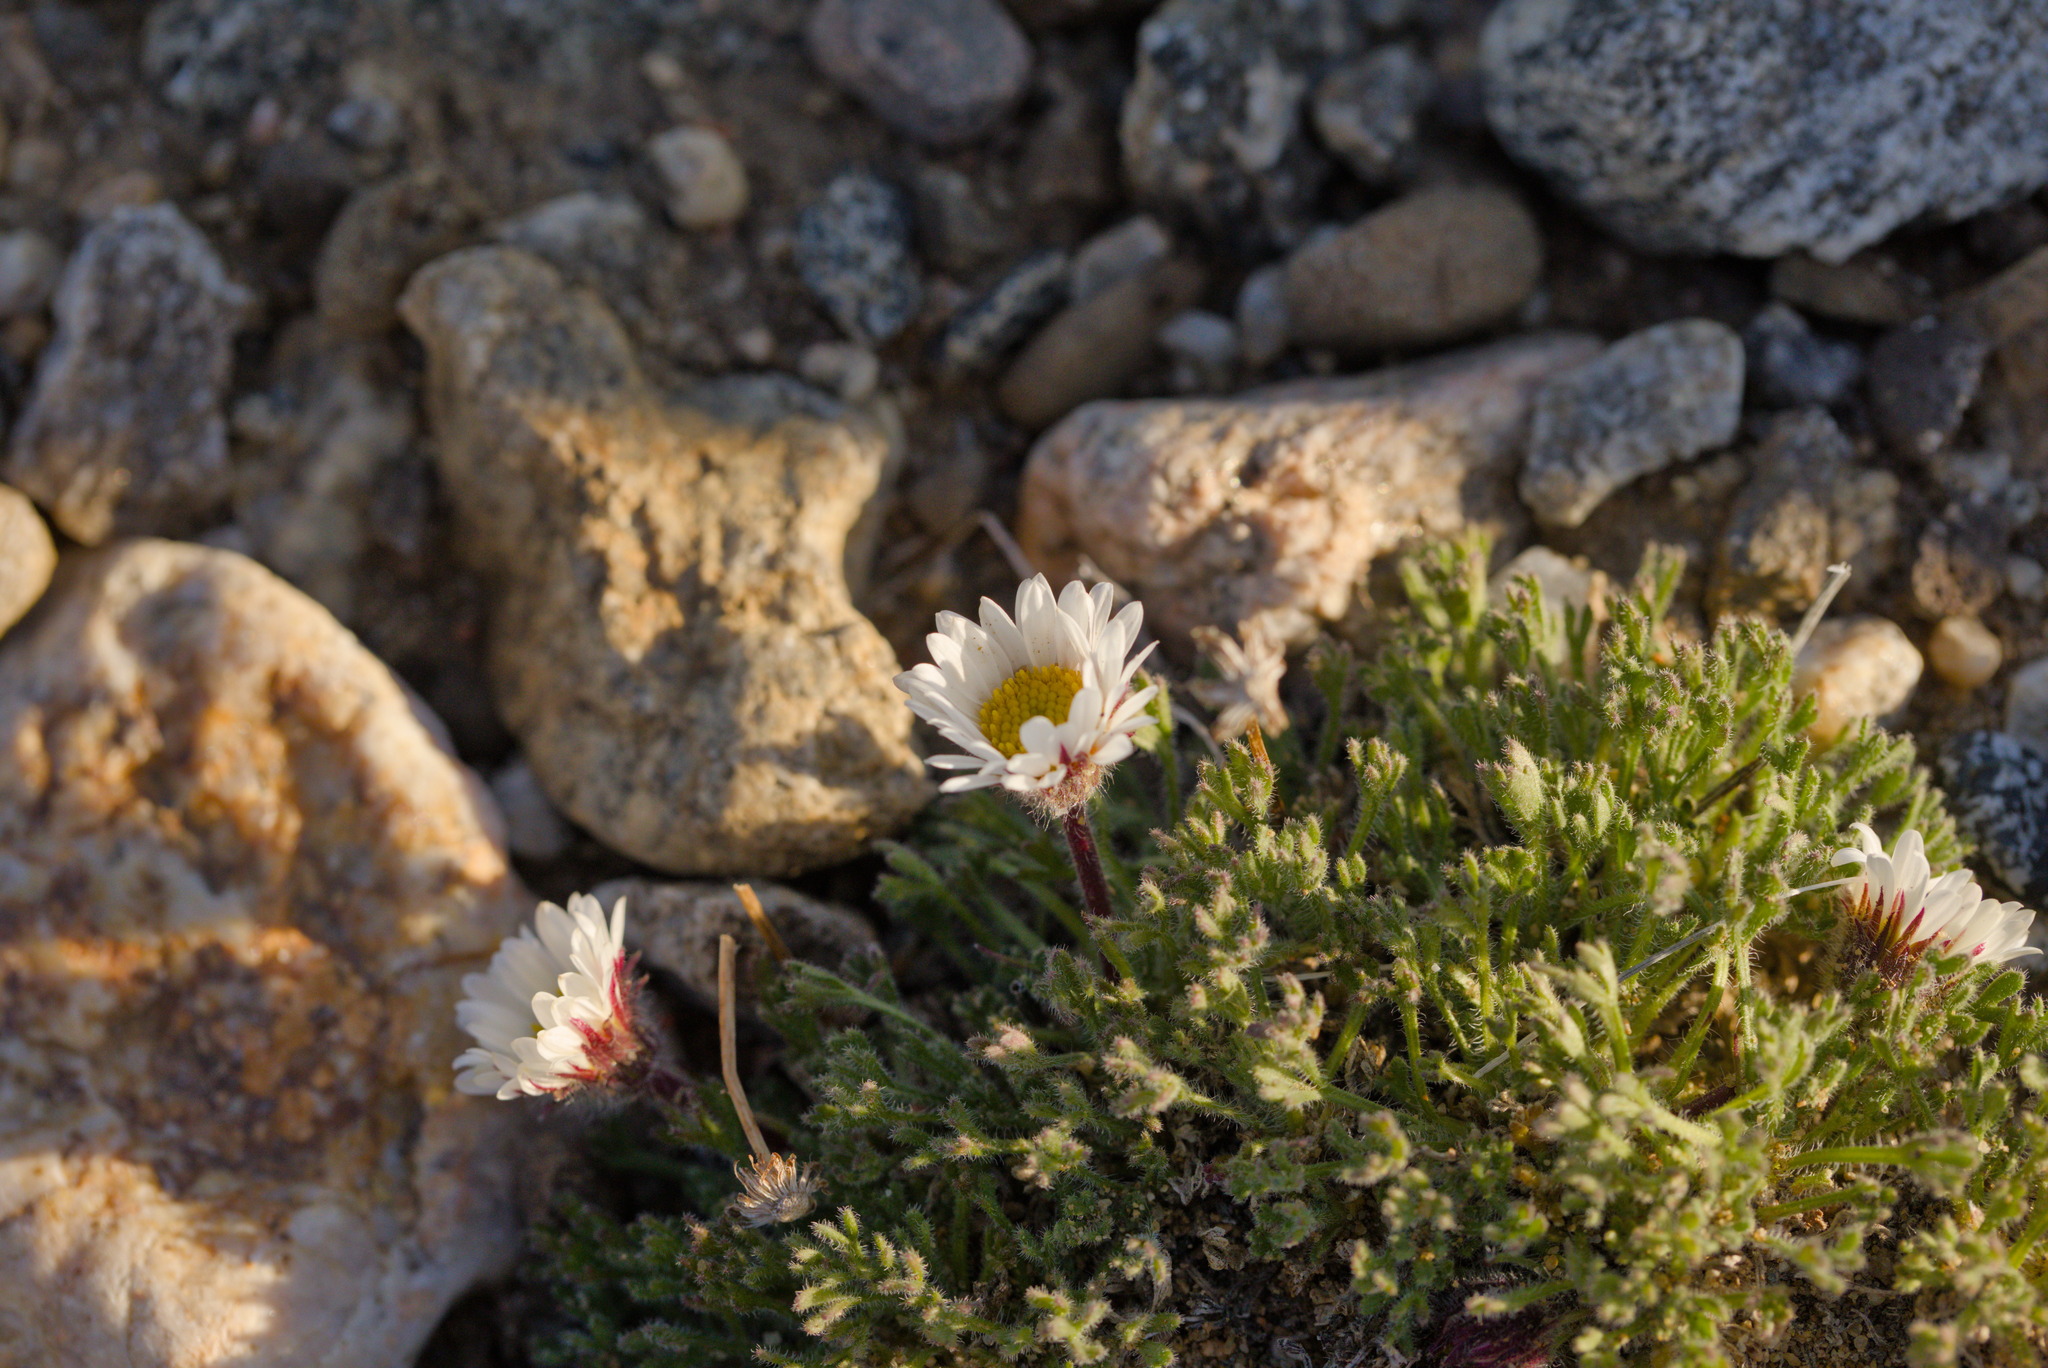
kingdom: Plantae
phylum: Tracheophyta
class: Magnoliopsida
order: Asterales
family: Asteraceae
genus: Erigeron
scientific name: Erigeron compositus
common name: Dwarf mountain fleabane
